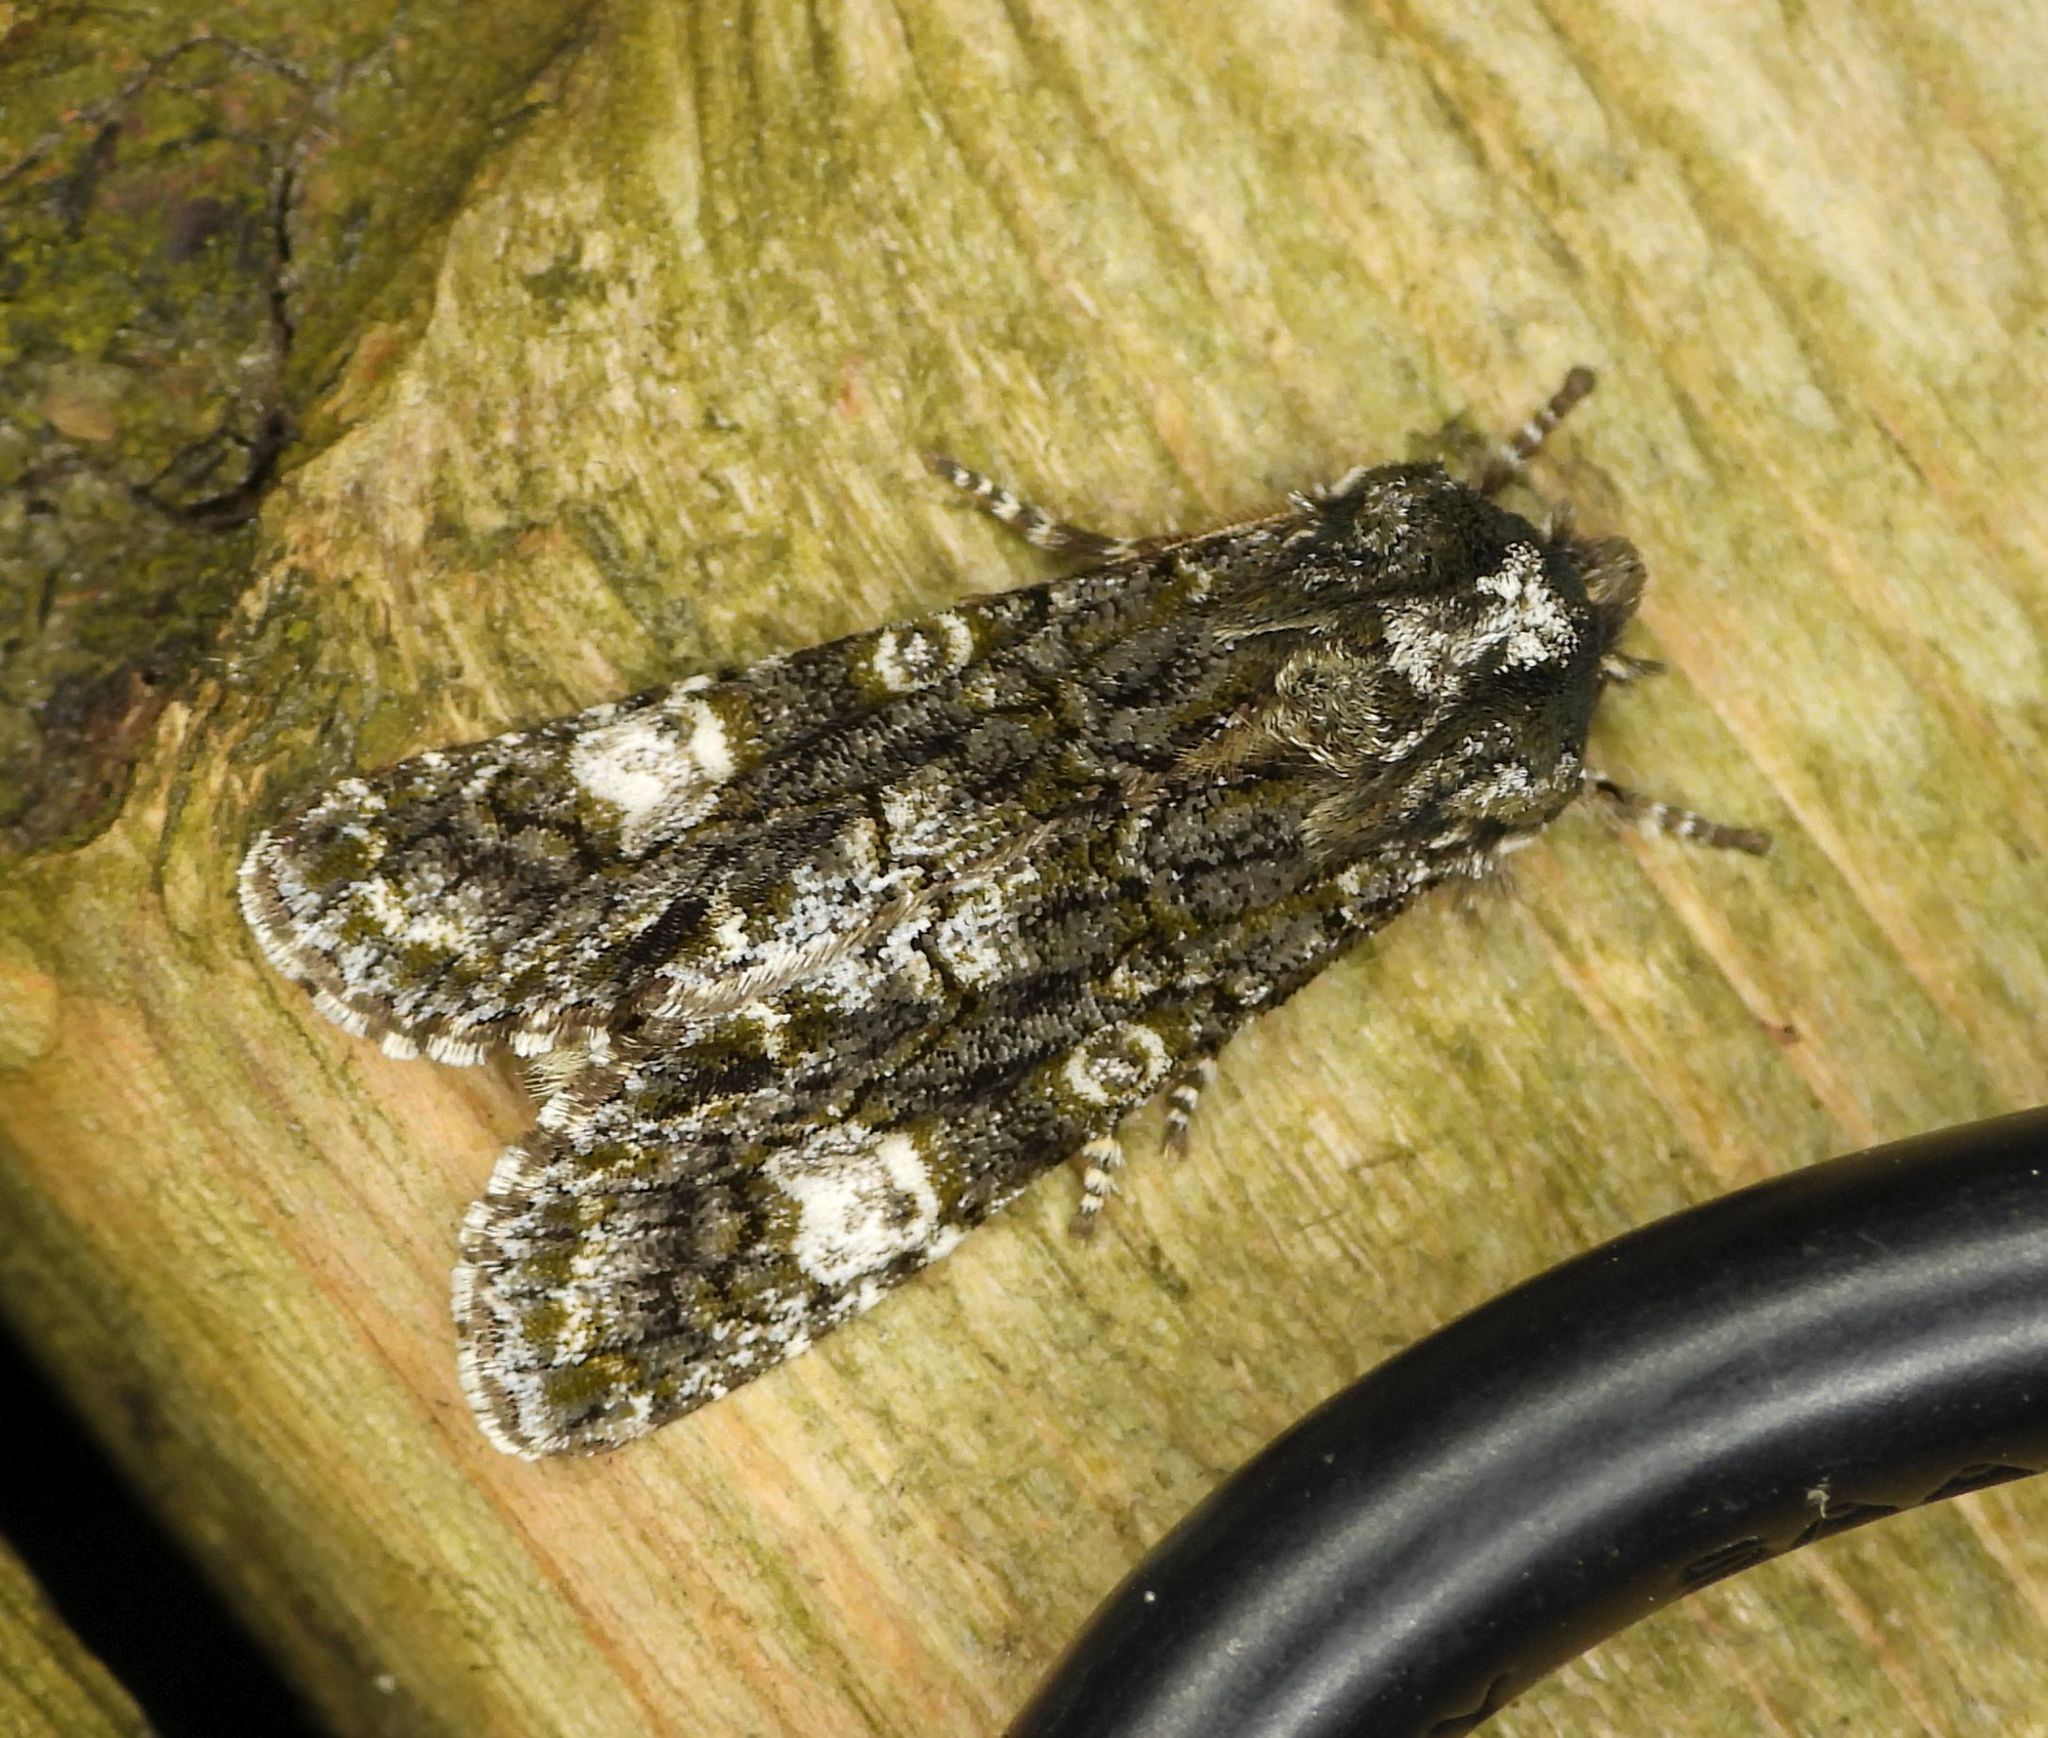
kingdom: Animalia
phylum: Arthropoda
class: Insecta
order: Lepidoptera
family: Noctuidae
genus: Psaphida
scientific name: Psaphida grotei
